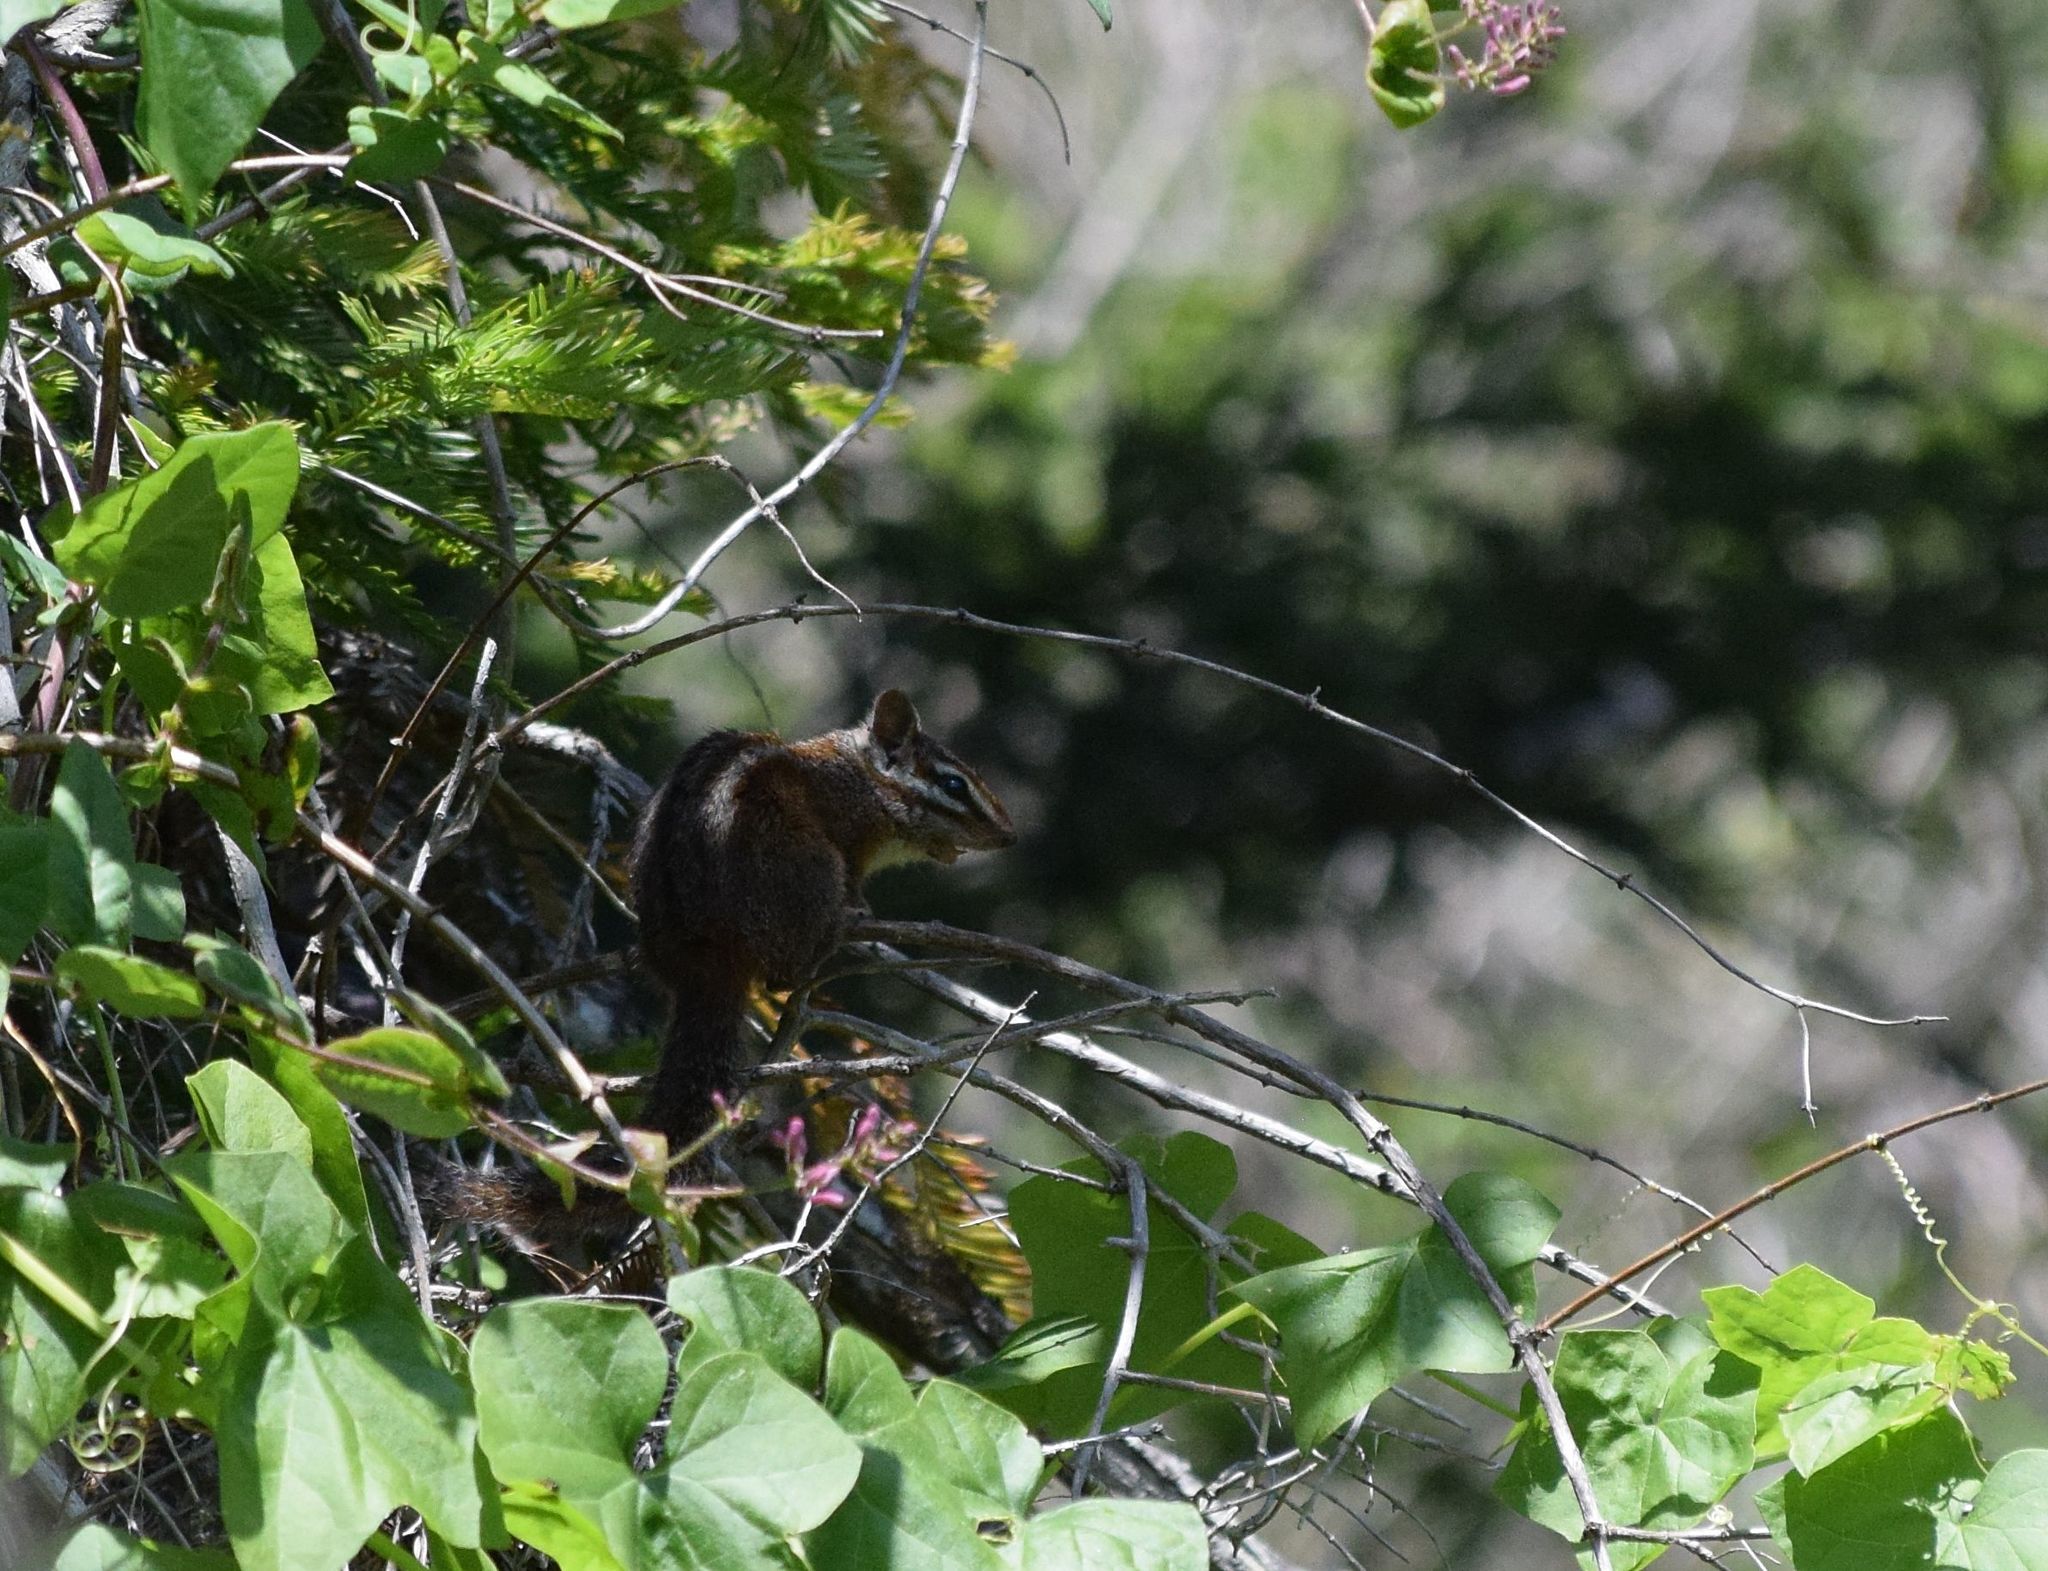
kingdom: Animalia
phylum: Chordata
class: Mammalia
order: Rodentia
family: Sciuridae
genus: Tamias
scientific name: Tamias merriami
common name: Merriam's chipmunk
